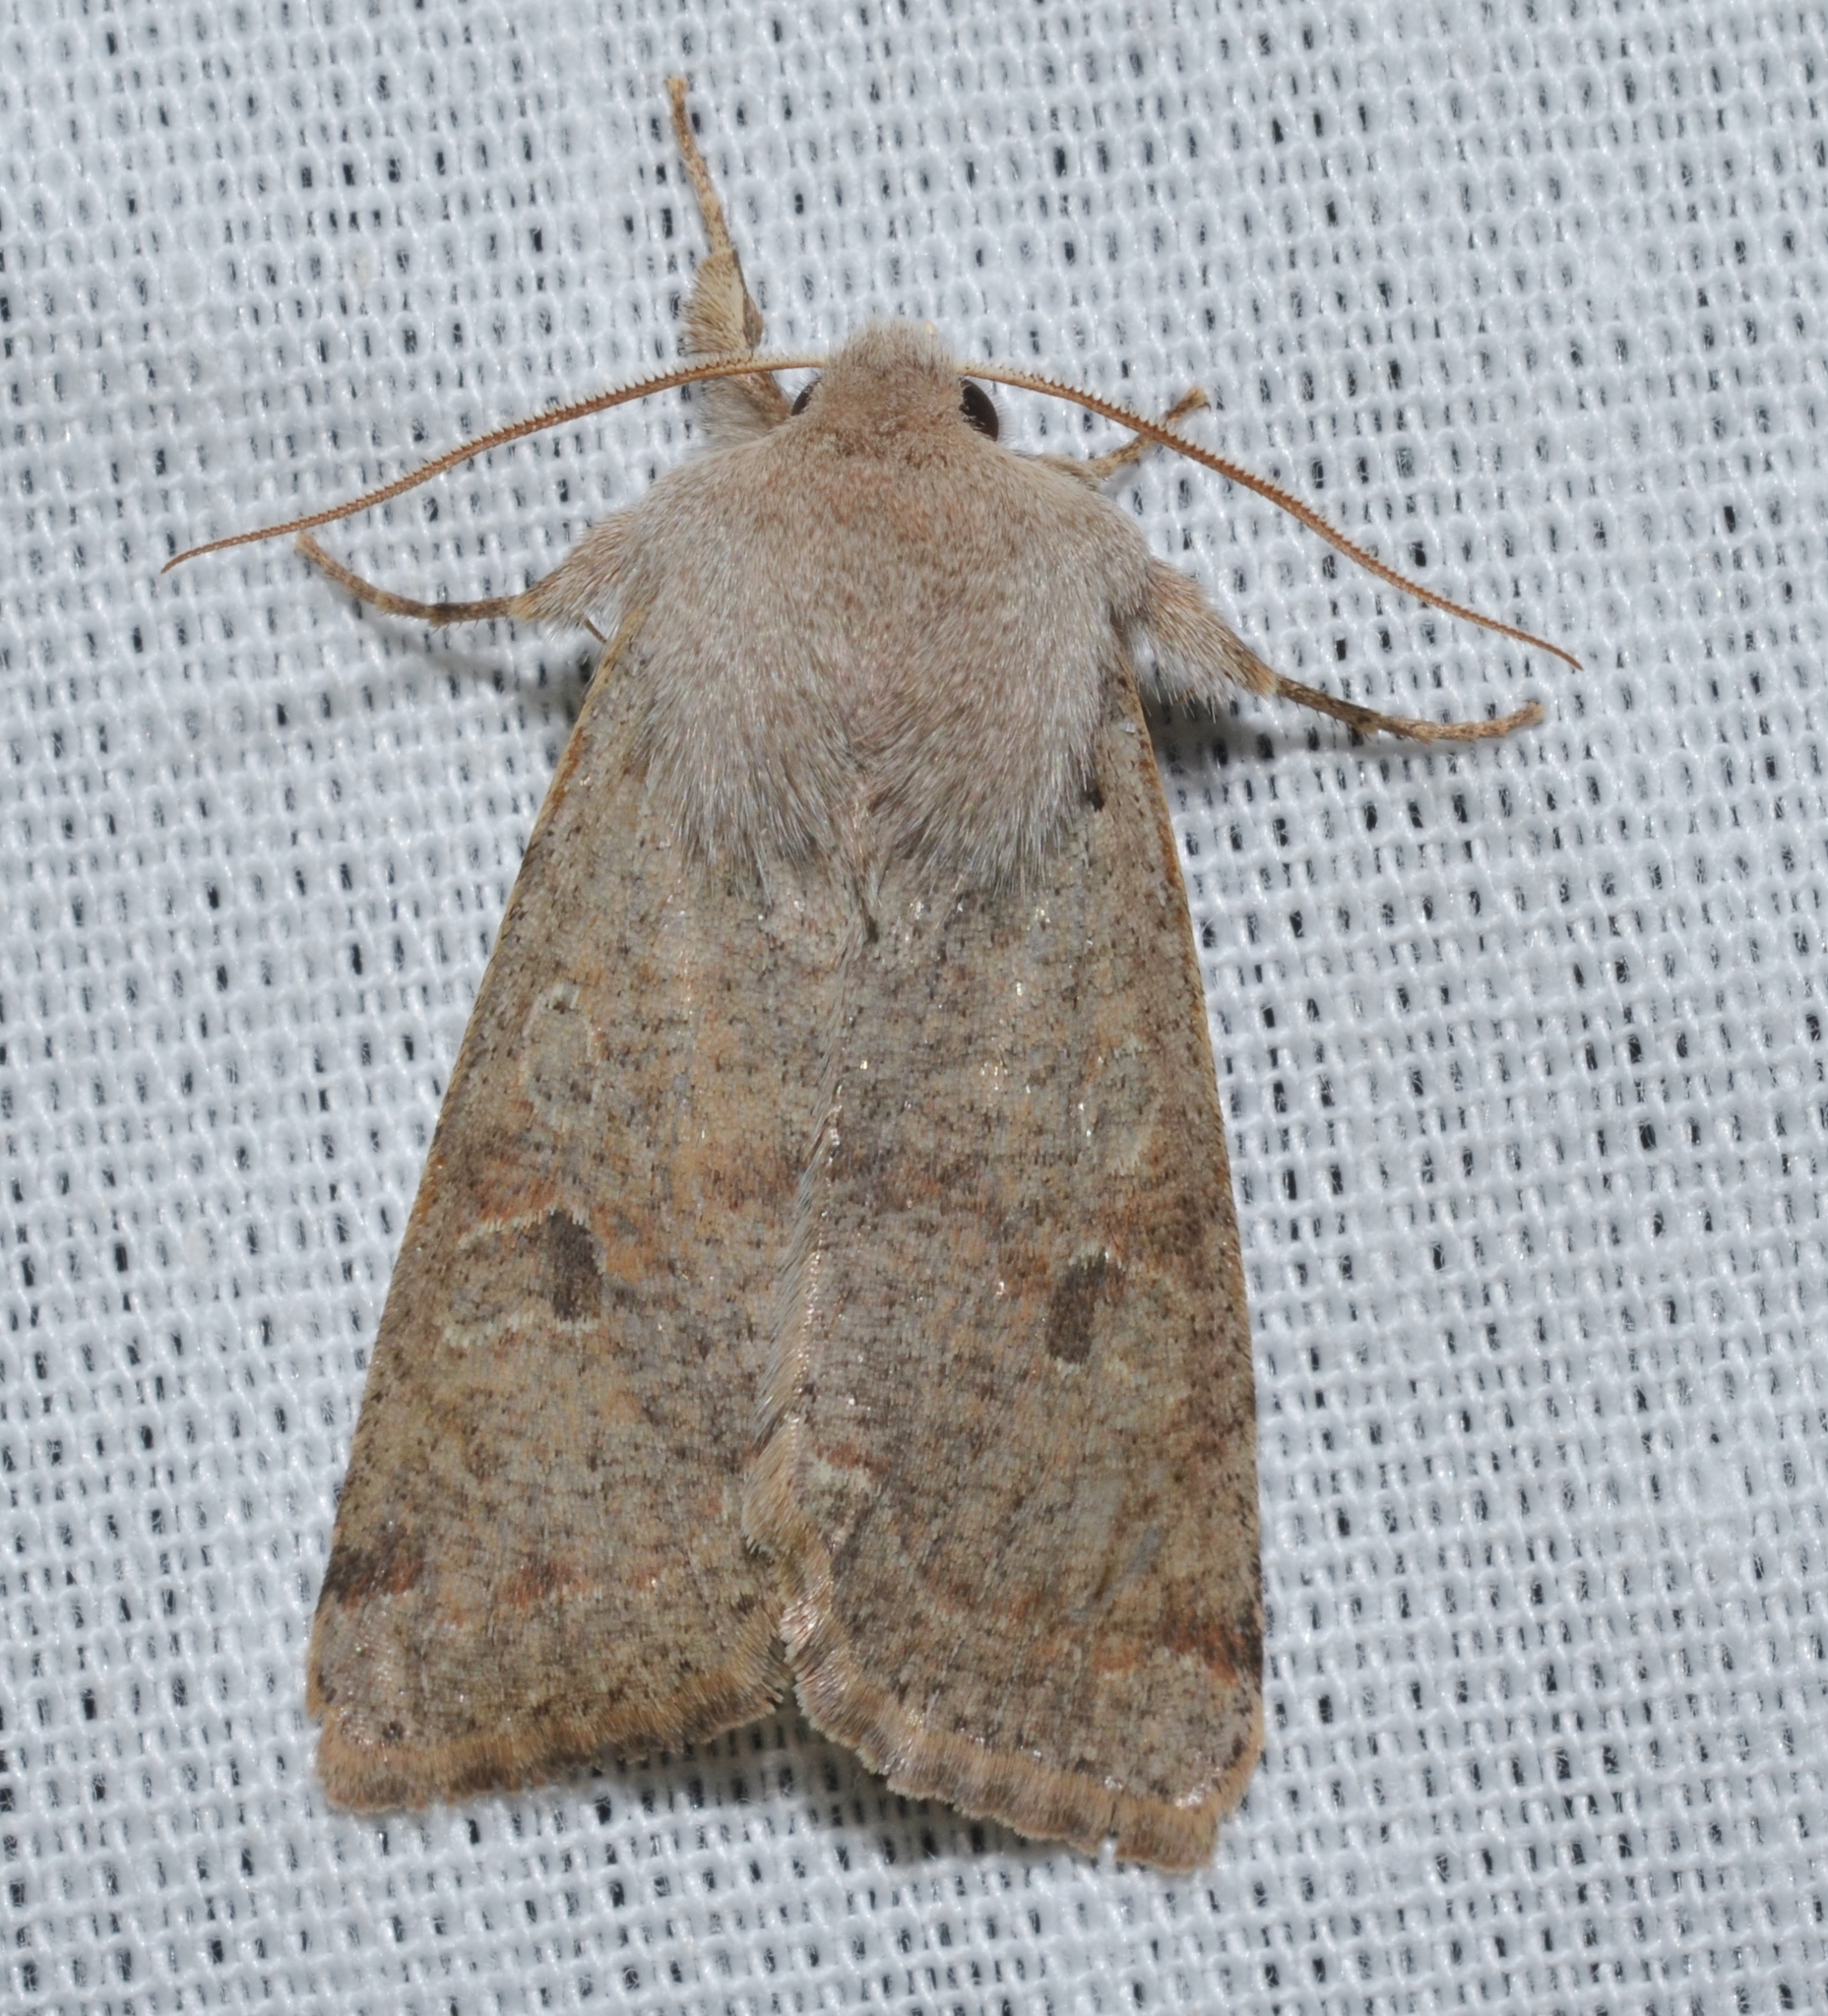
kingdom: Animalia
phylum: Arthropoda
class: Insecta
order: Lepidoptera
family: Noctuidae
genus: Orthosia
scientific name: Orthosia hibisci
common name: Green fruitworm
